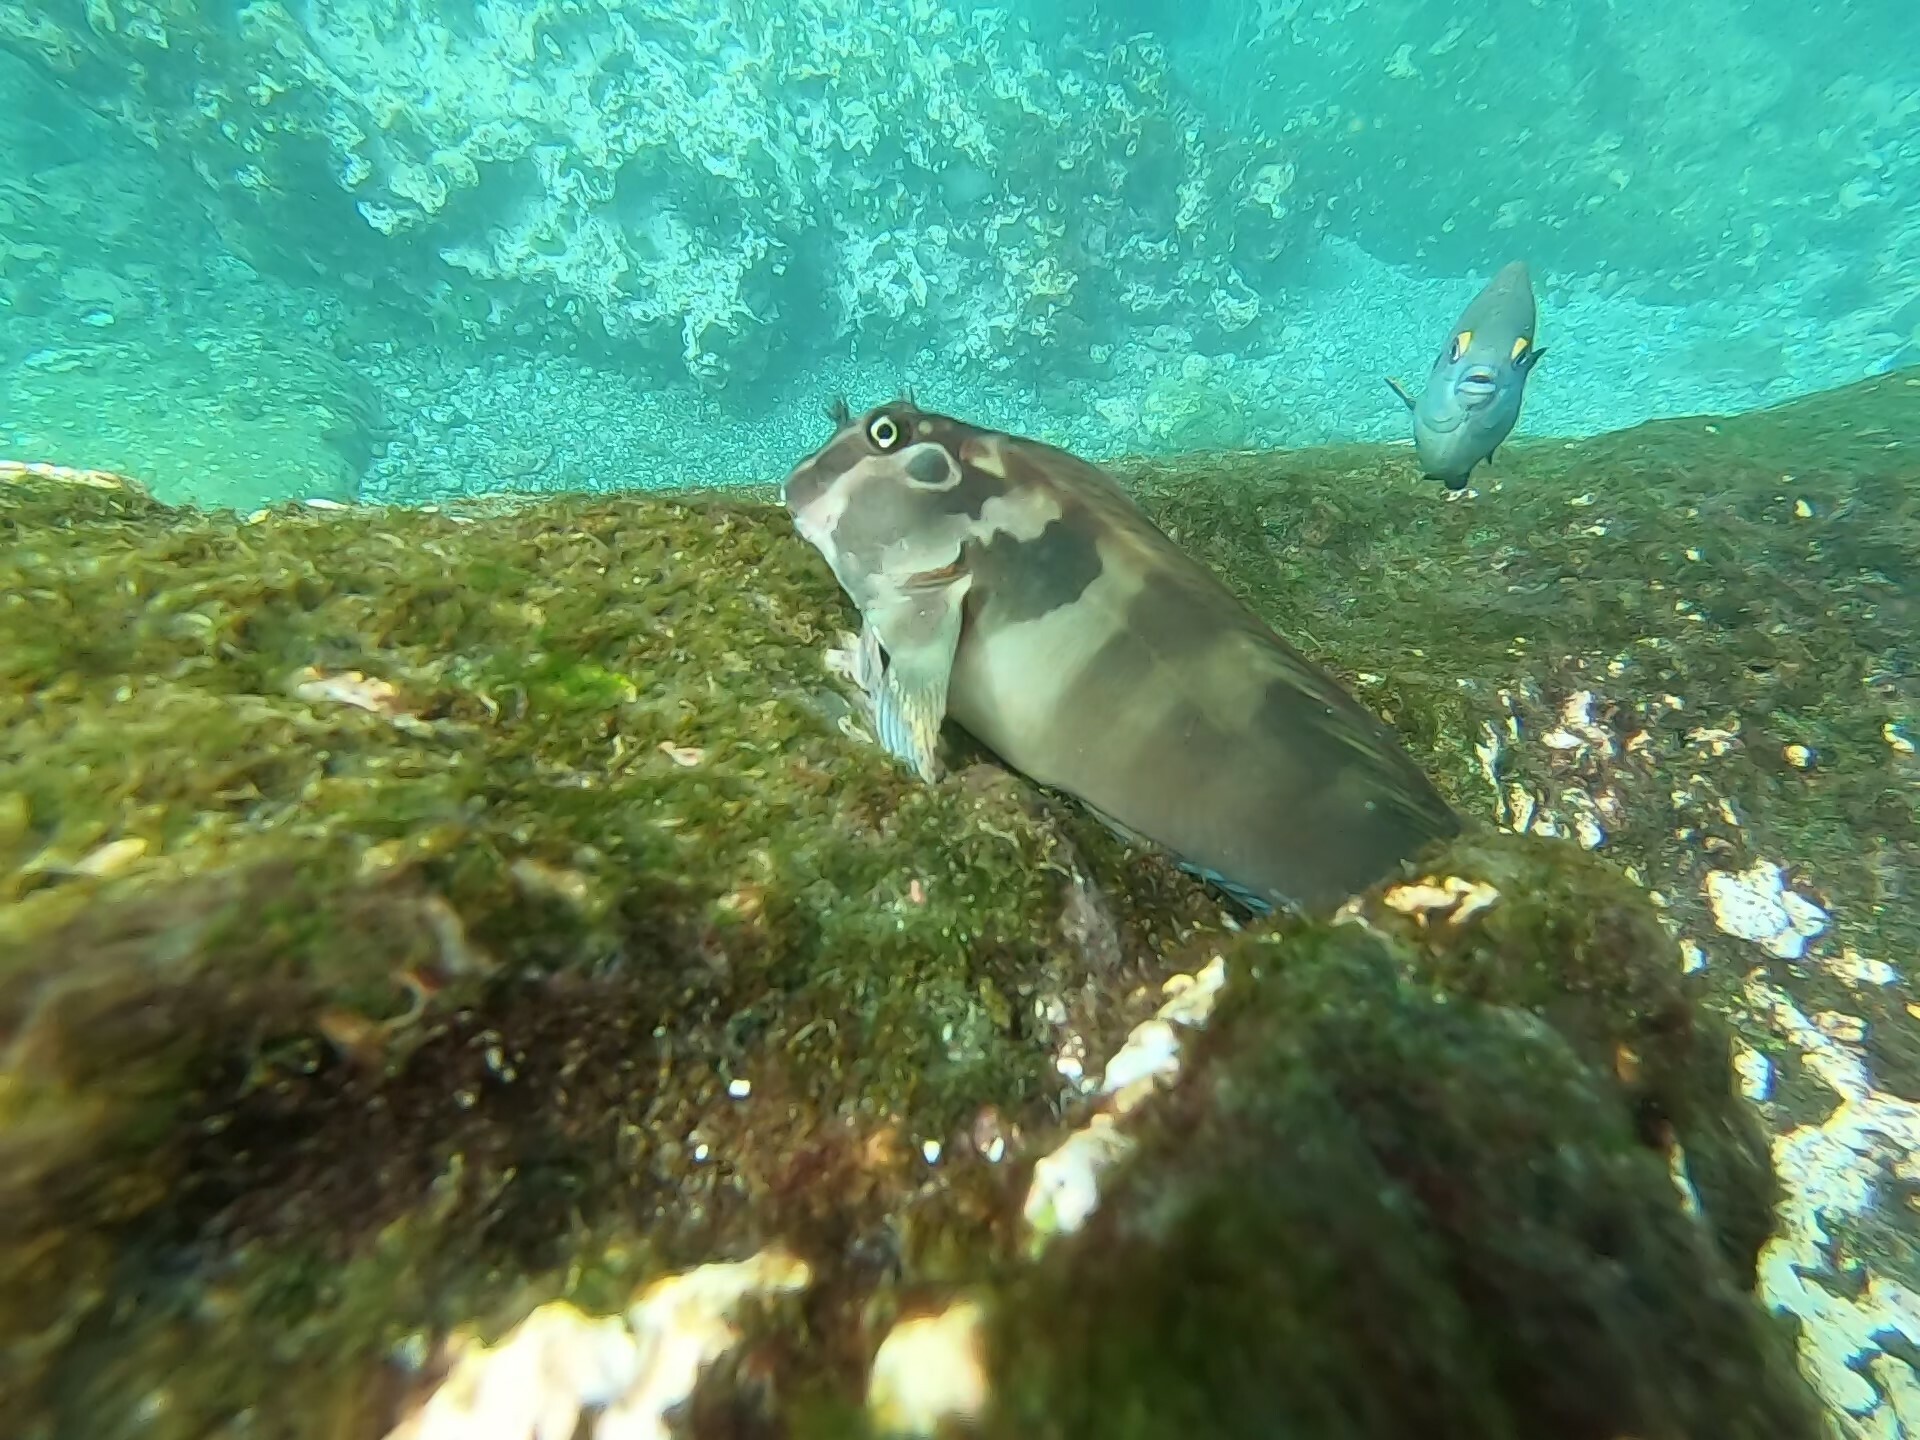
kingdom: Animalia
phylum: Chordata
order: Perciformes
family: Blenniidae
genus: Ophioblennius
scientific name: Ophioblennius steindachneri
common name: Panamic fanged blenny
